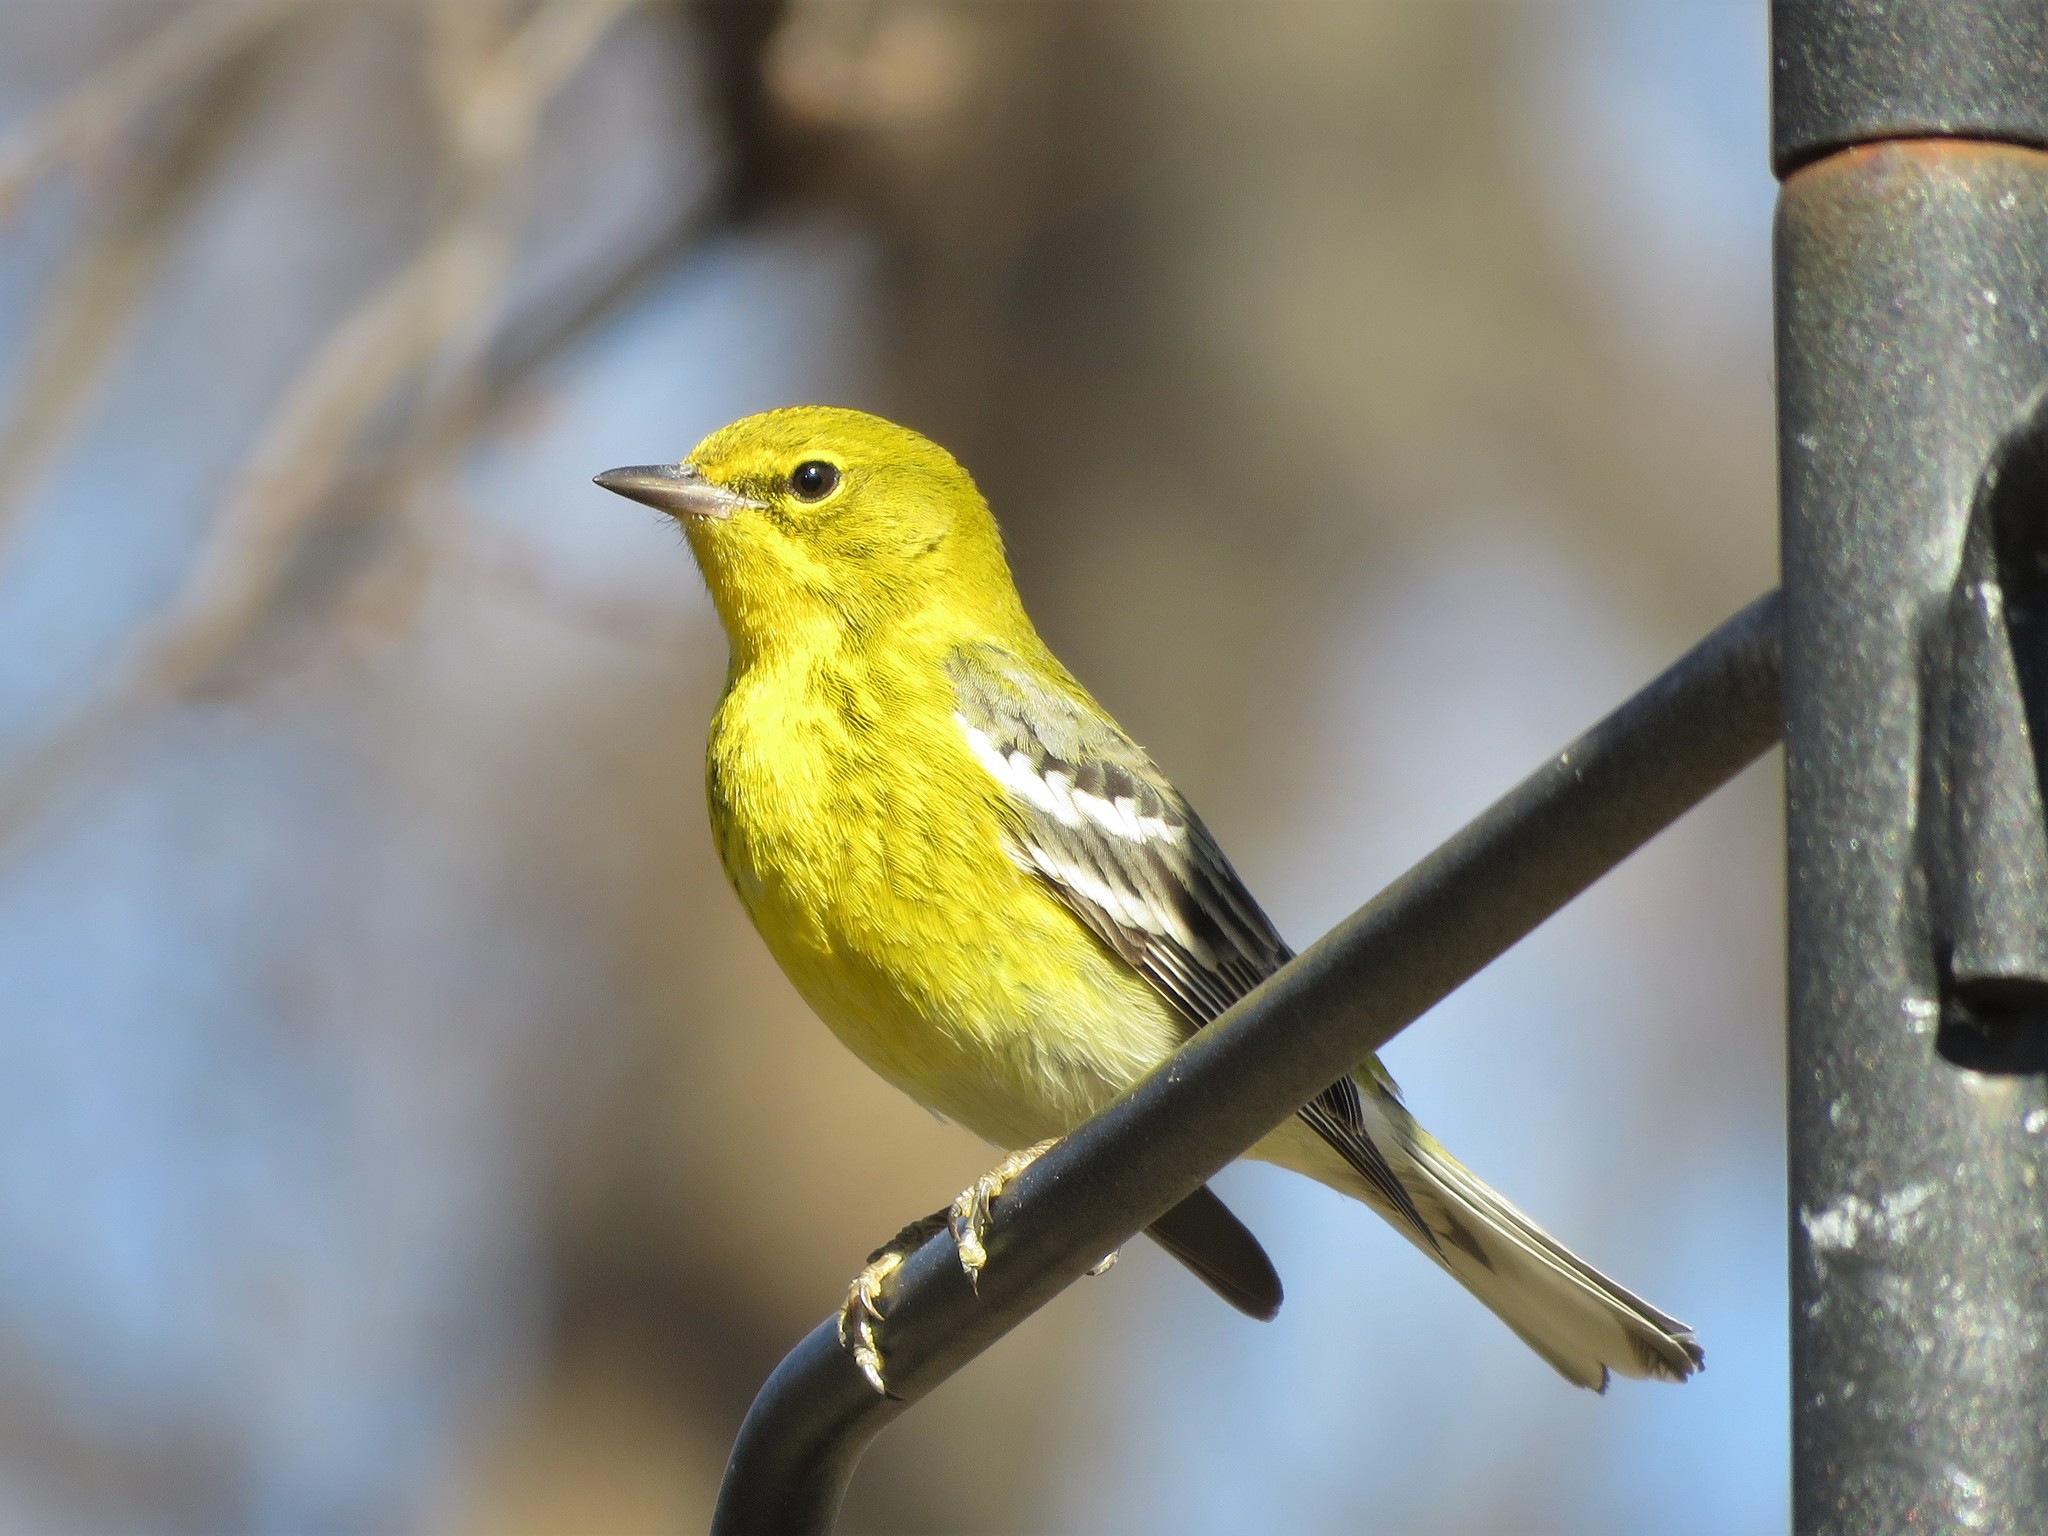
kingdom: Animalia
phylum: Chordata
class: Aves
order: Passeriformes
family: Parulidae
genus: Setophaga
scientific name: Setophaga pinus
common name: Pine warbler
